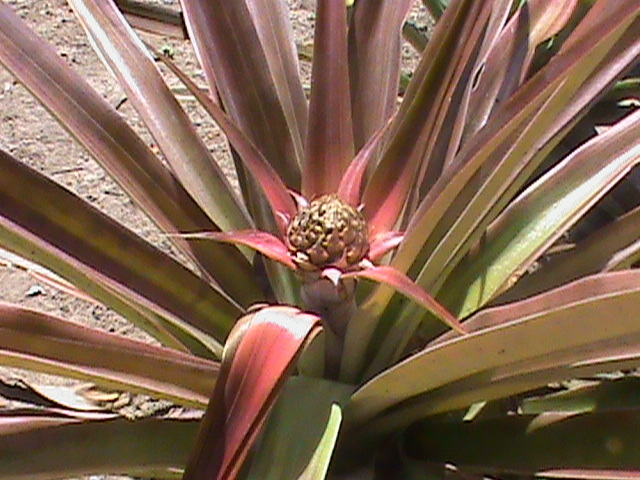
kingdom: Plantae
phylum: Tracheophyta
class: Liliopsida
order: Poales
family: Bromeliaceae
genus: Ananas
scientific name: Ananas comosus
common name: Pineapple
